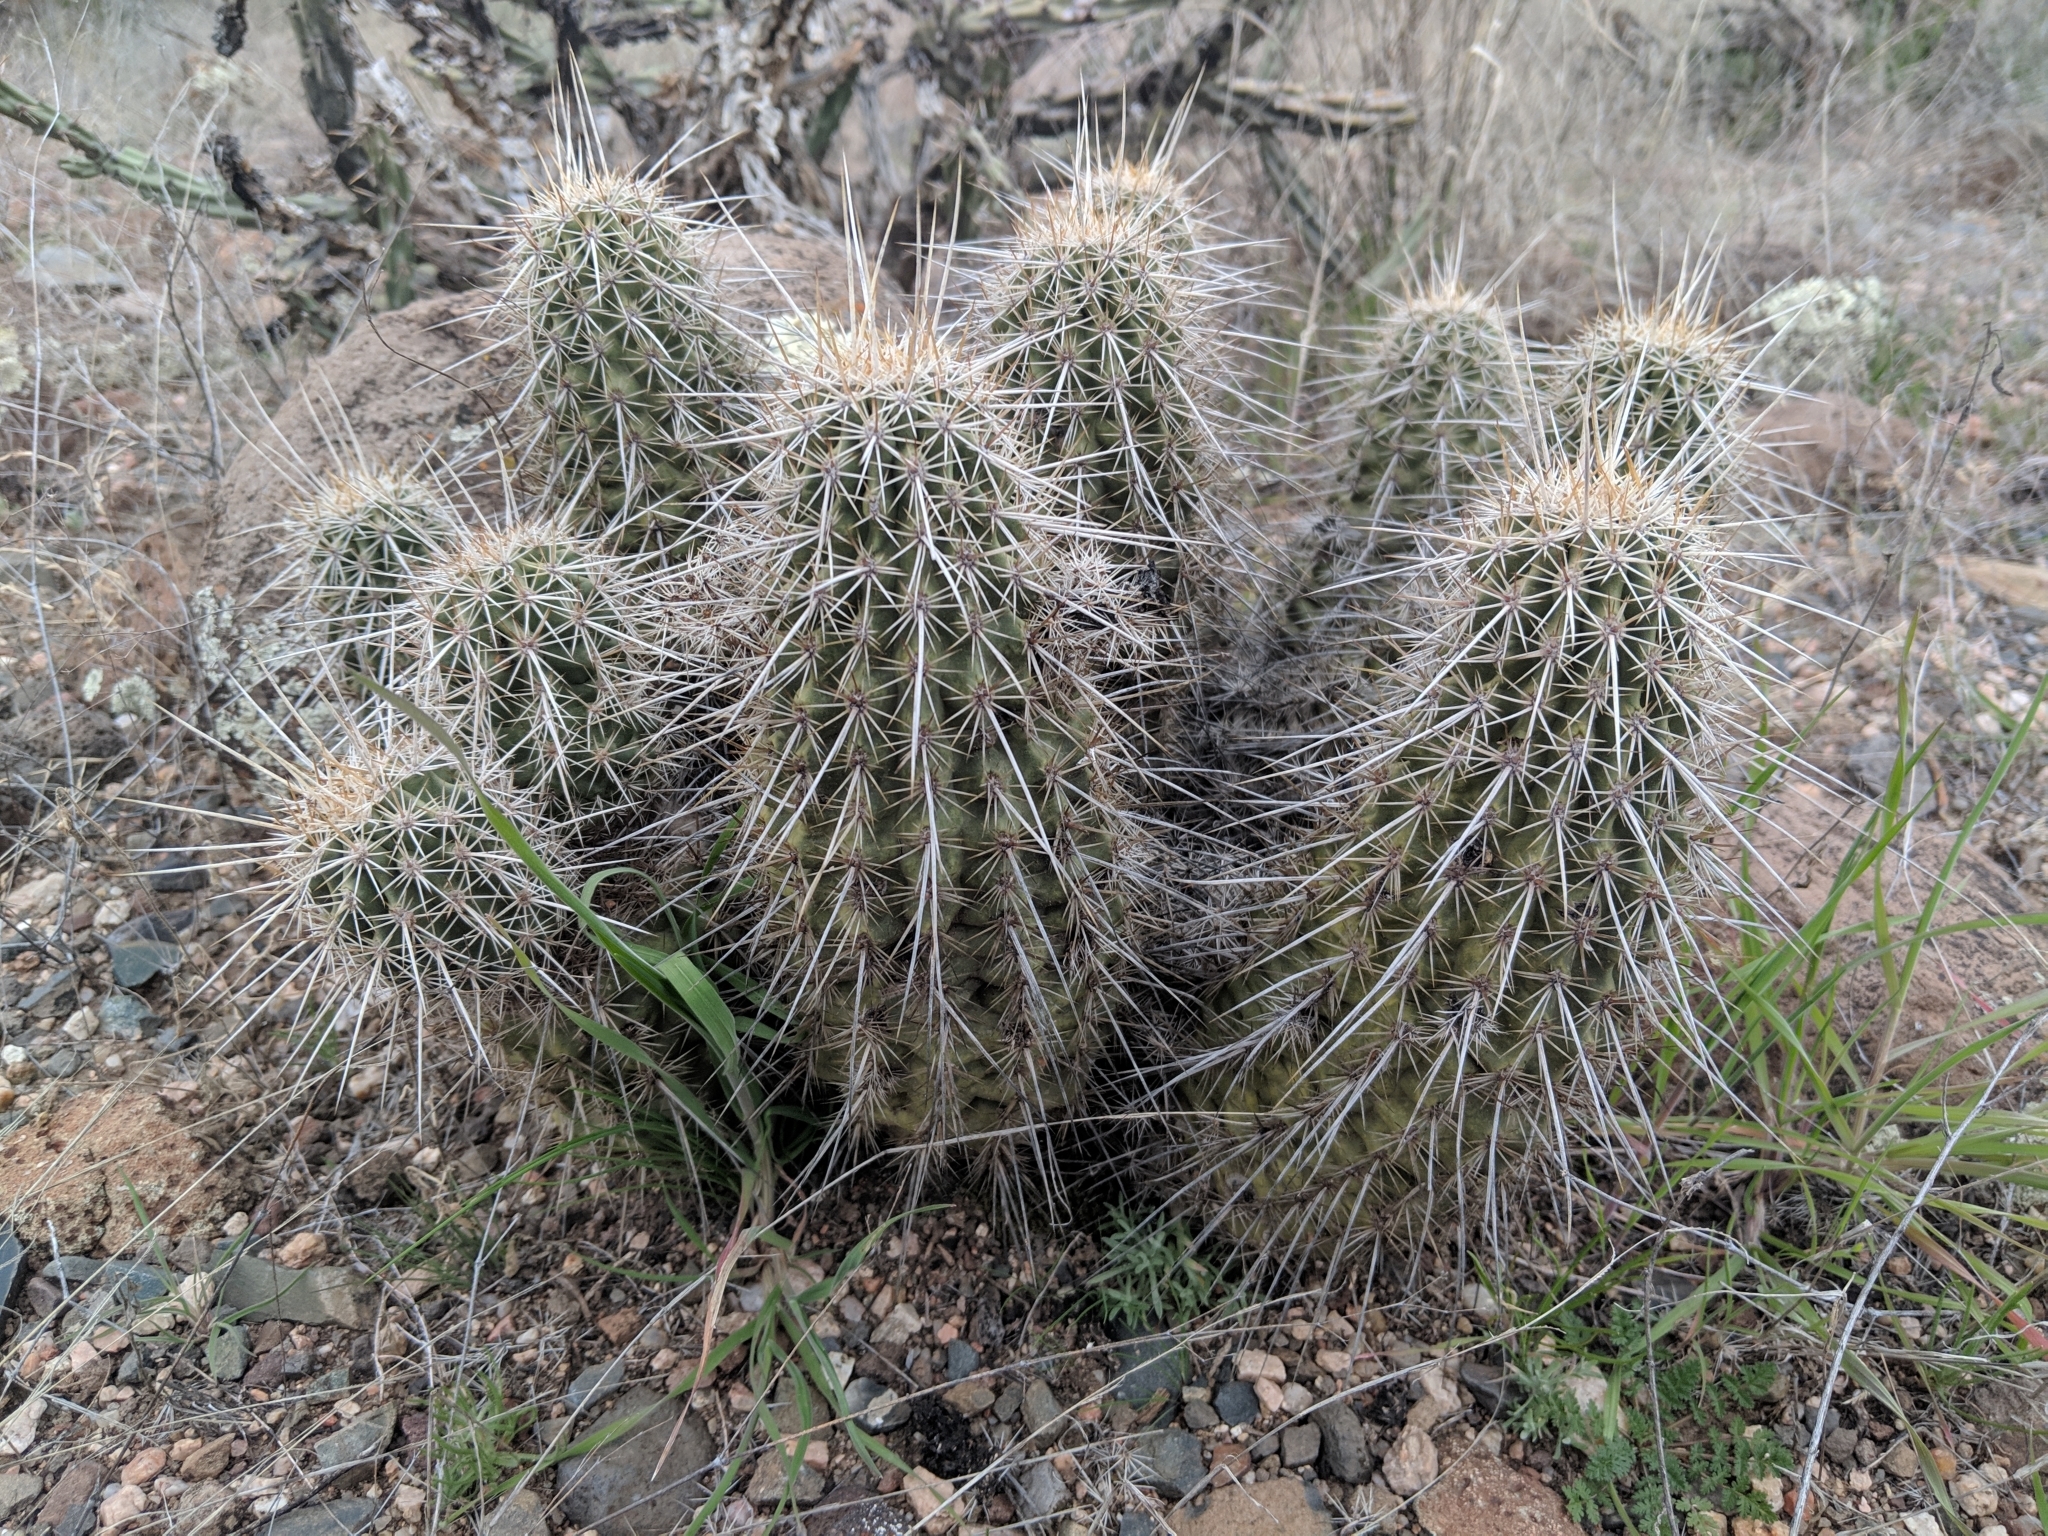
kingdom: Plantae
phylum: Tracheophyta
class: Magnoliopsida
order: Caryophyllales
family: Cactaceae
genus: Echinocereus
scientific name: Echinocereus fasciculatus
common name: Bundle hedgehog
